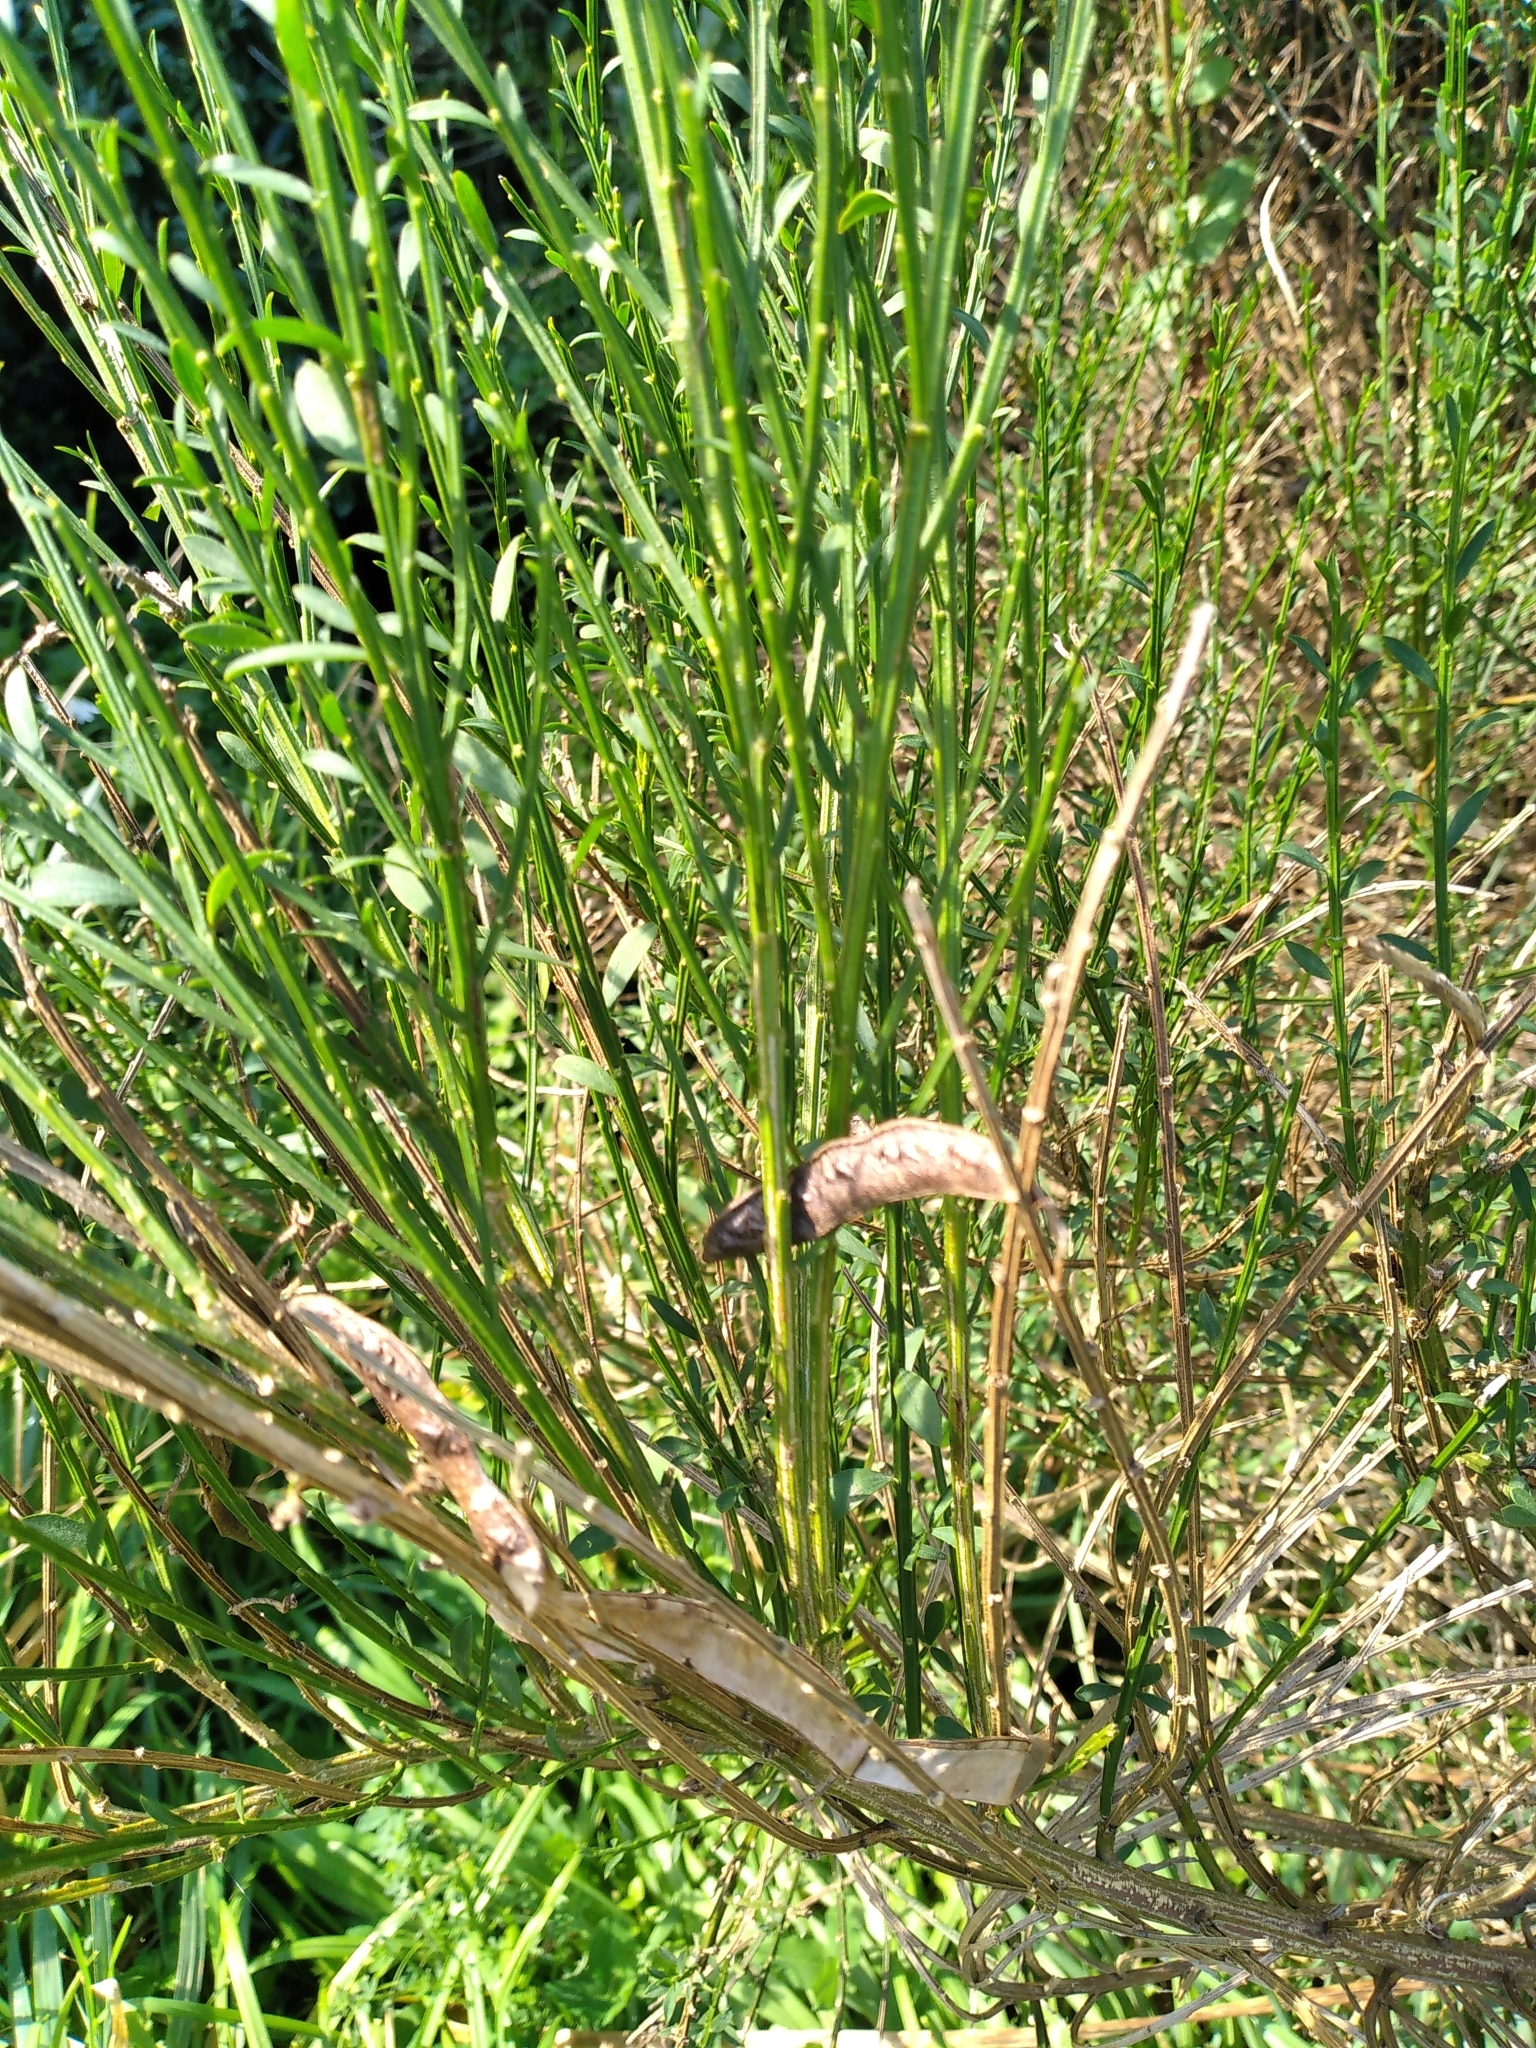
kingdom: Plantae
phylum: Tracheophyta
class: Magnoliopsida
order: Fabales
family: Fabaceae
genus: Cytisus
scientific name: Cytisus scoparius
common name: Scotch broom
